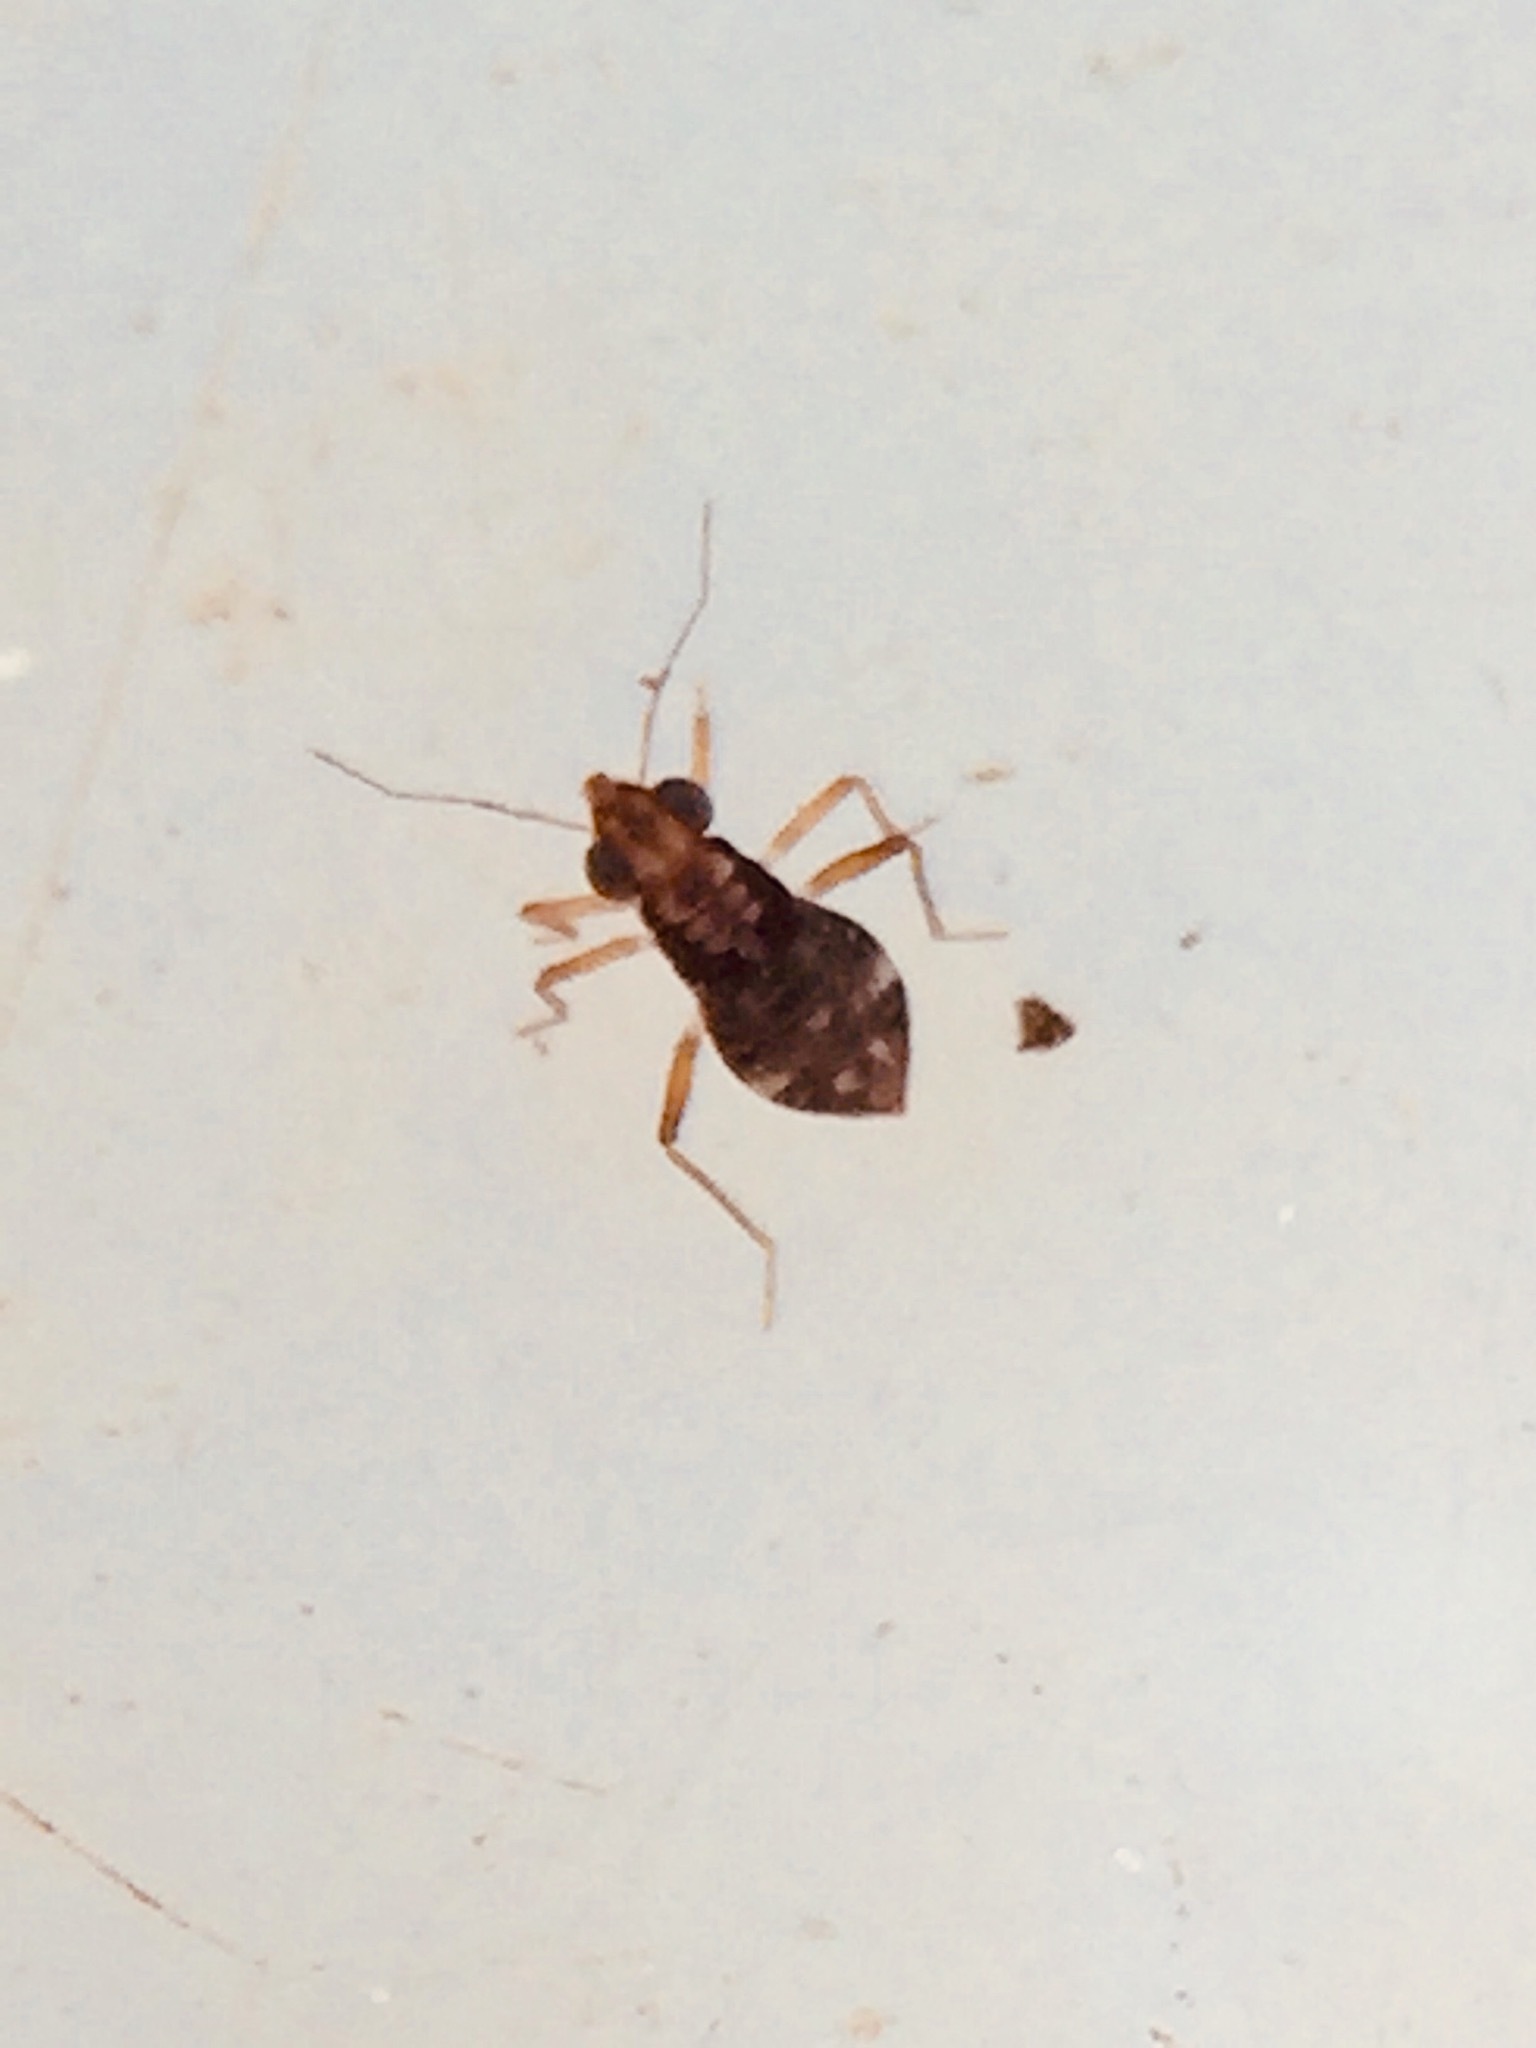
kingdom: Animalia
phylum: Arthropoda
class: Insecta
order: Hemiptera
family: Mesoveliidae
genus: Mniovelia
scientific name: Mniovelia kuscheli
